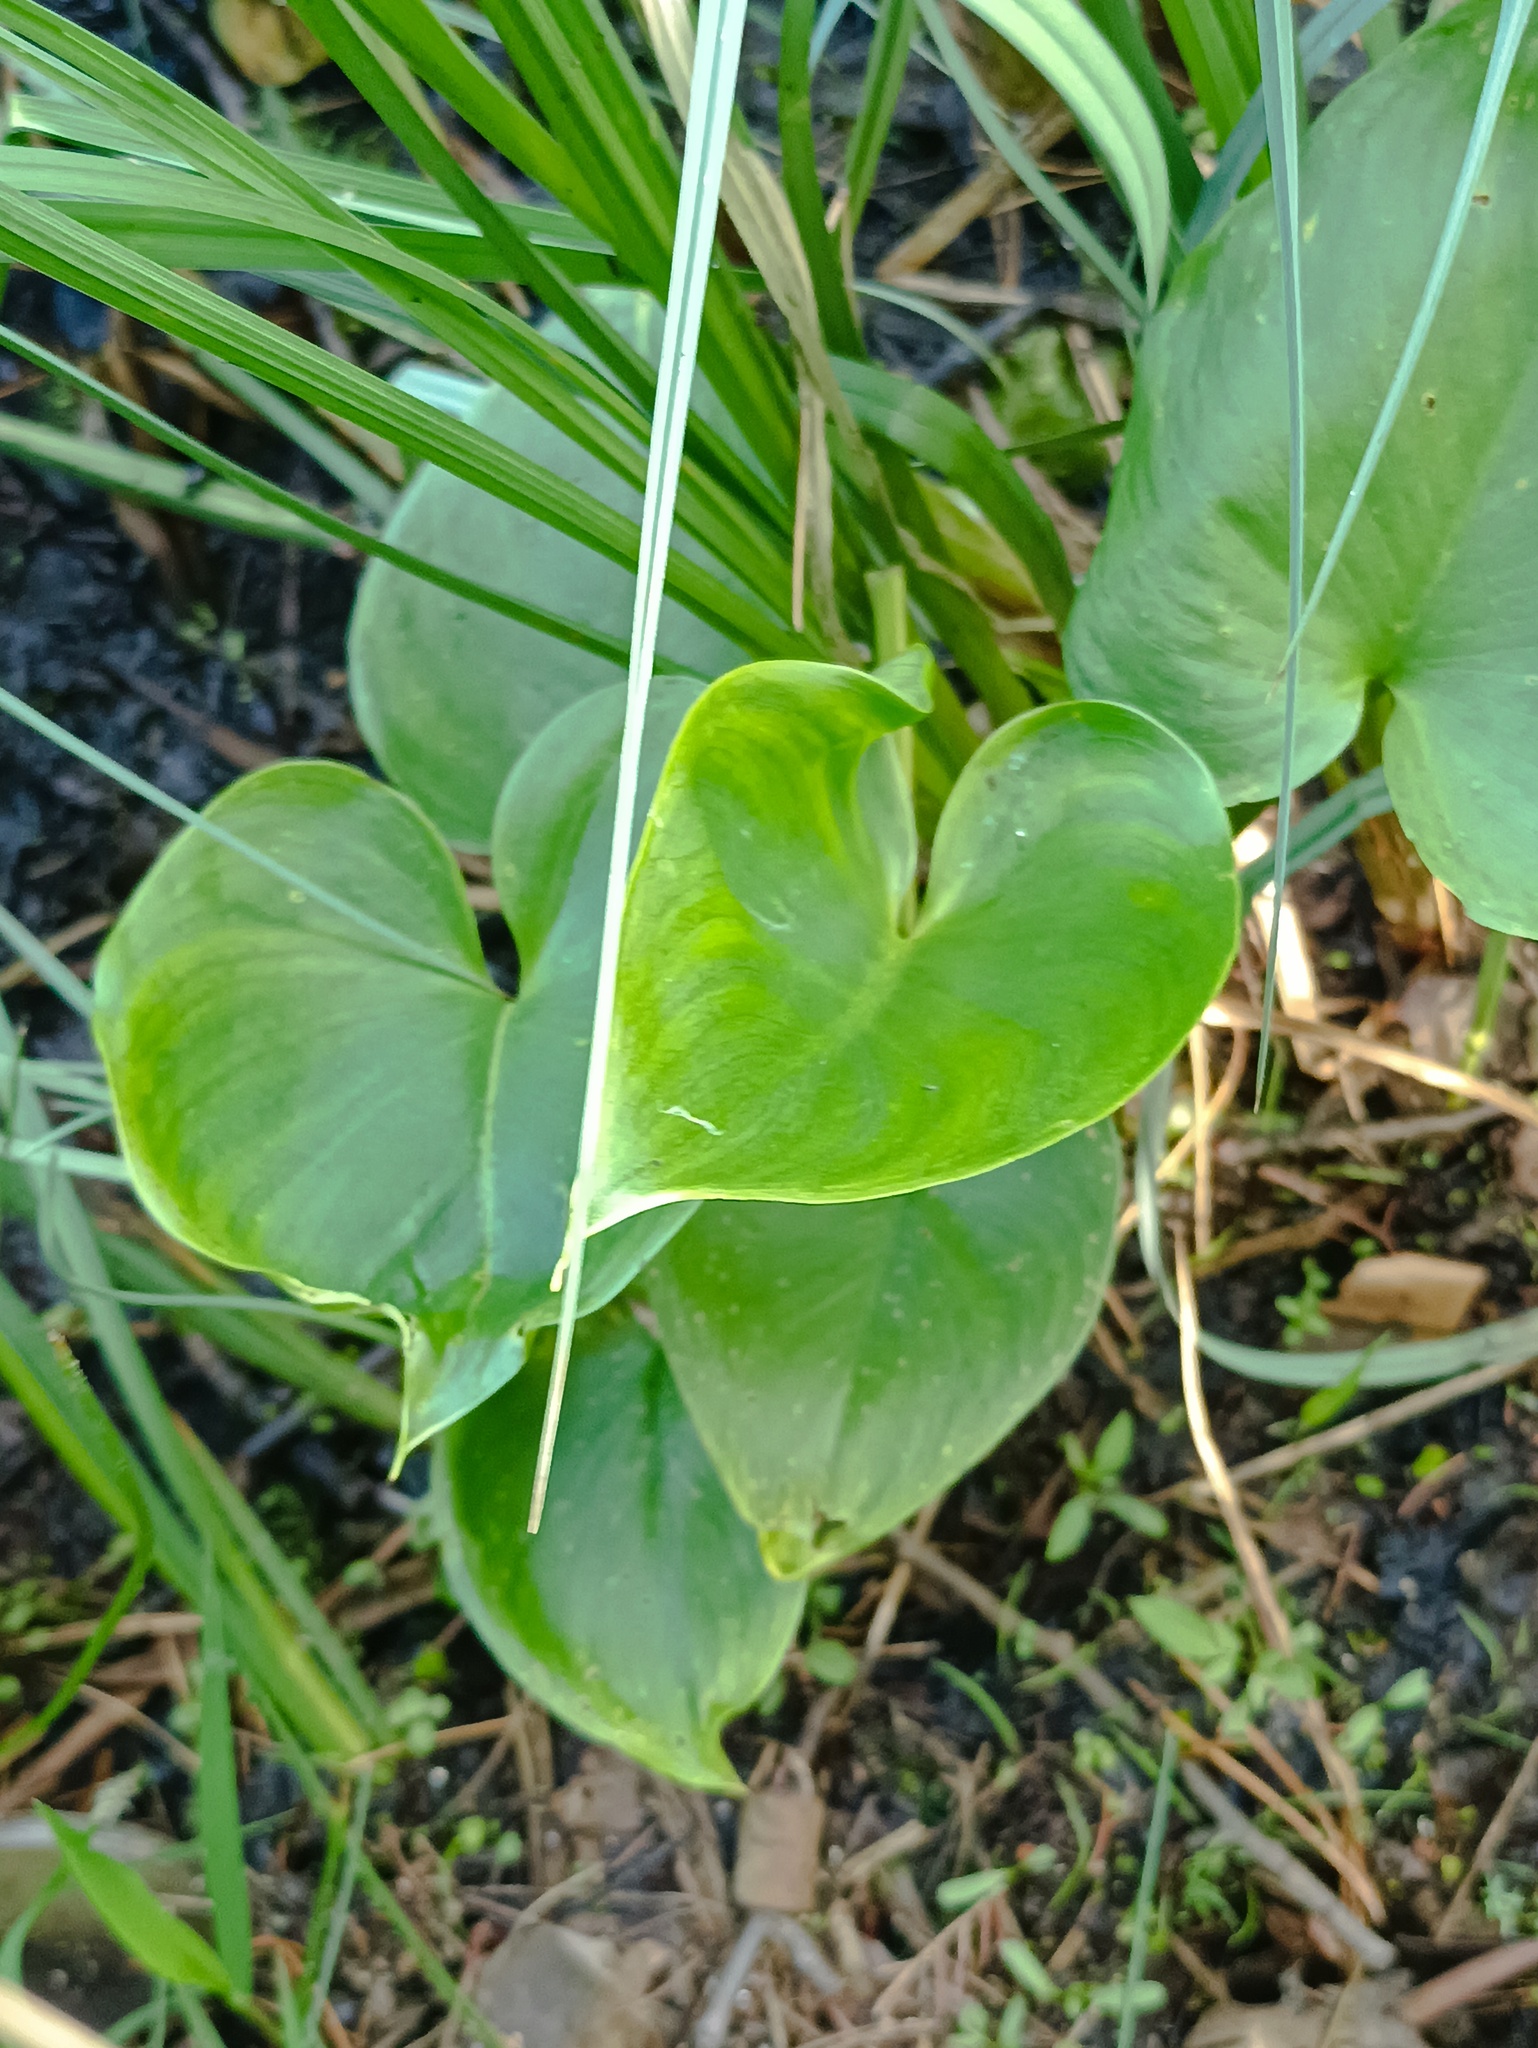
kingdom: Plantae
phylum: Tracheophyta
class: Liliopsida
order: Alismatales
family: Araceae
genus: Calla
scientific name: Calla palustris
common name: Bog arum
